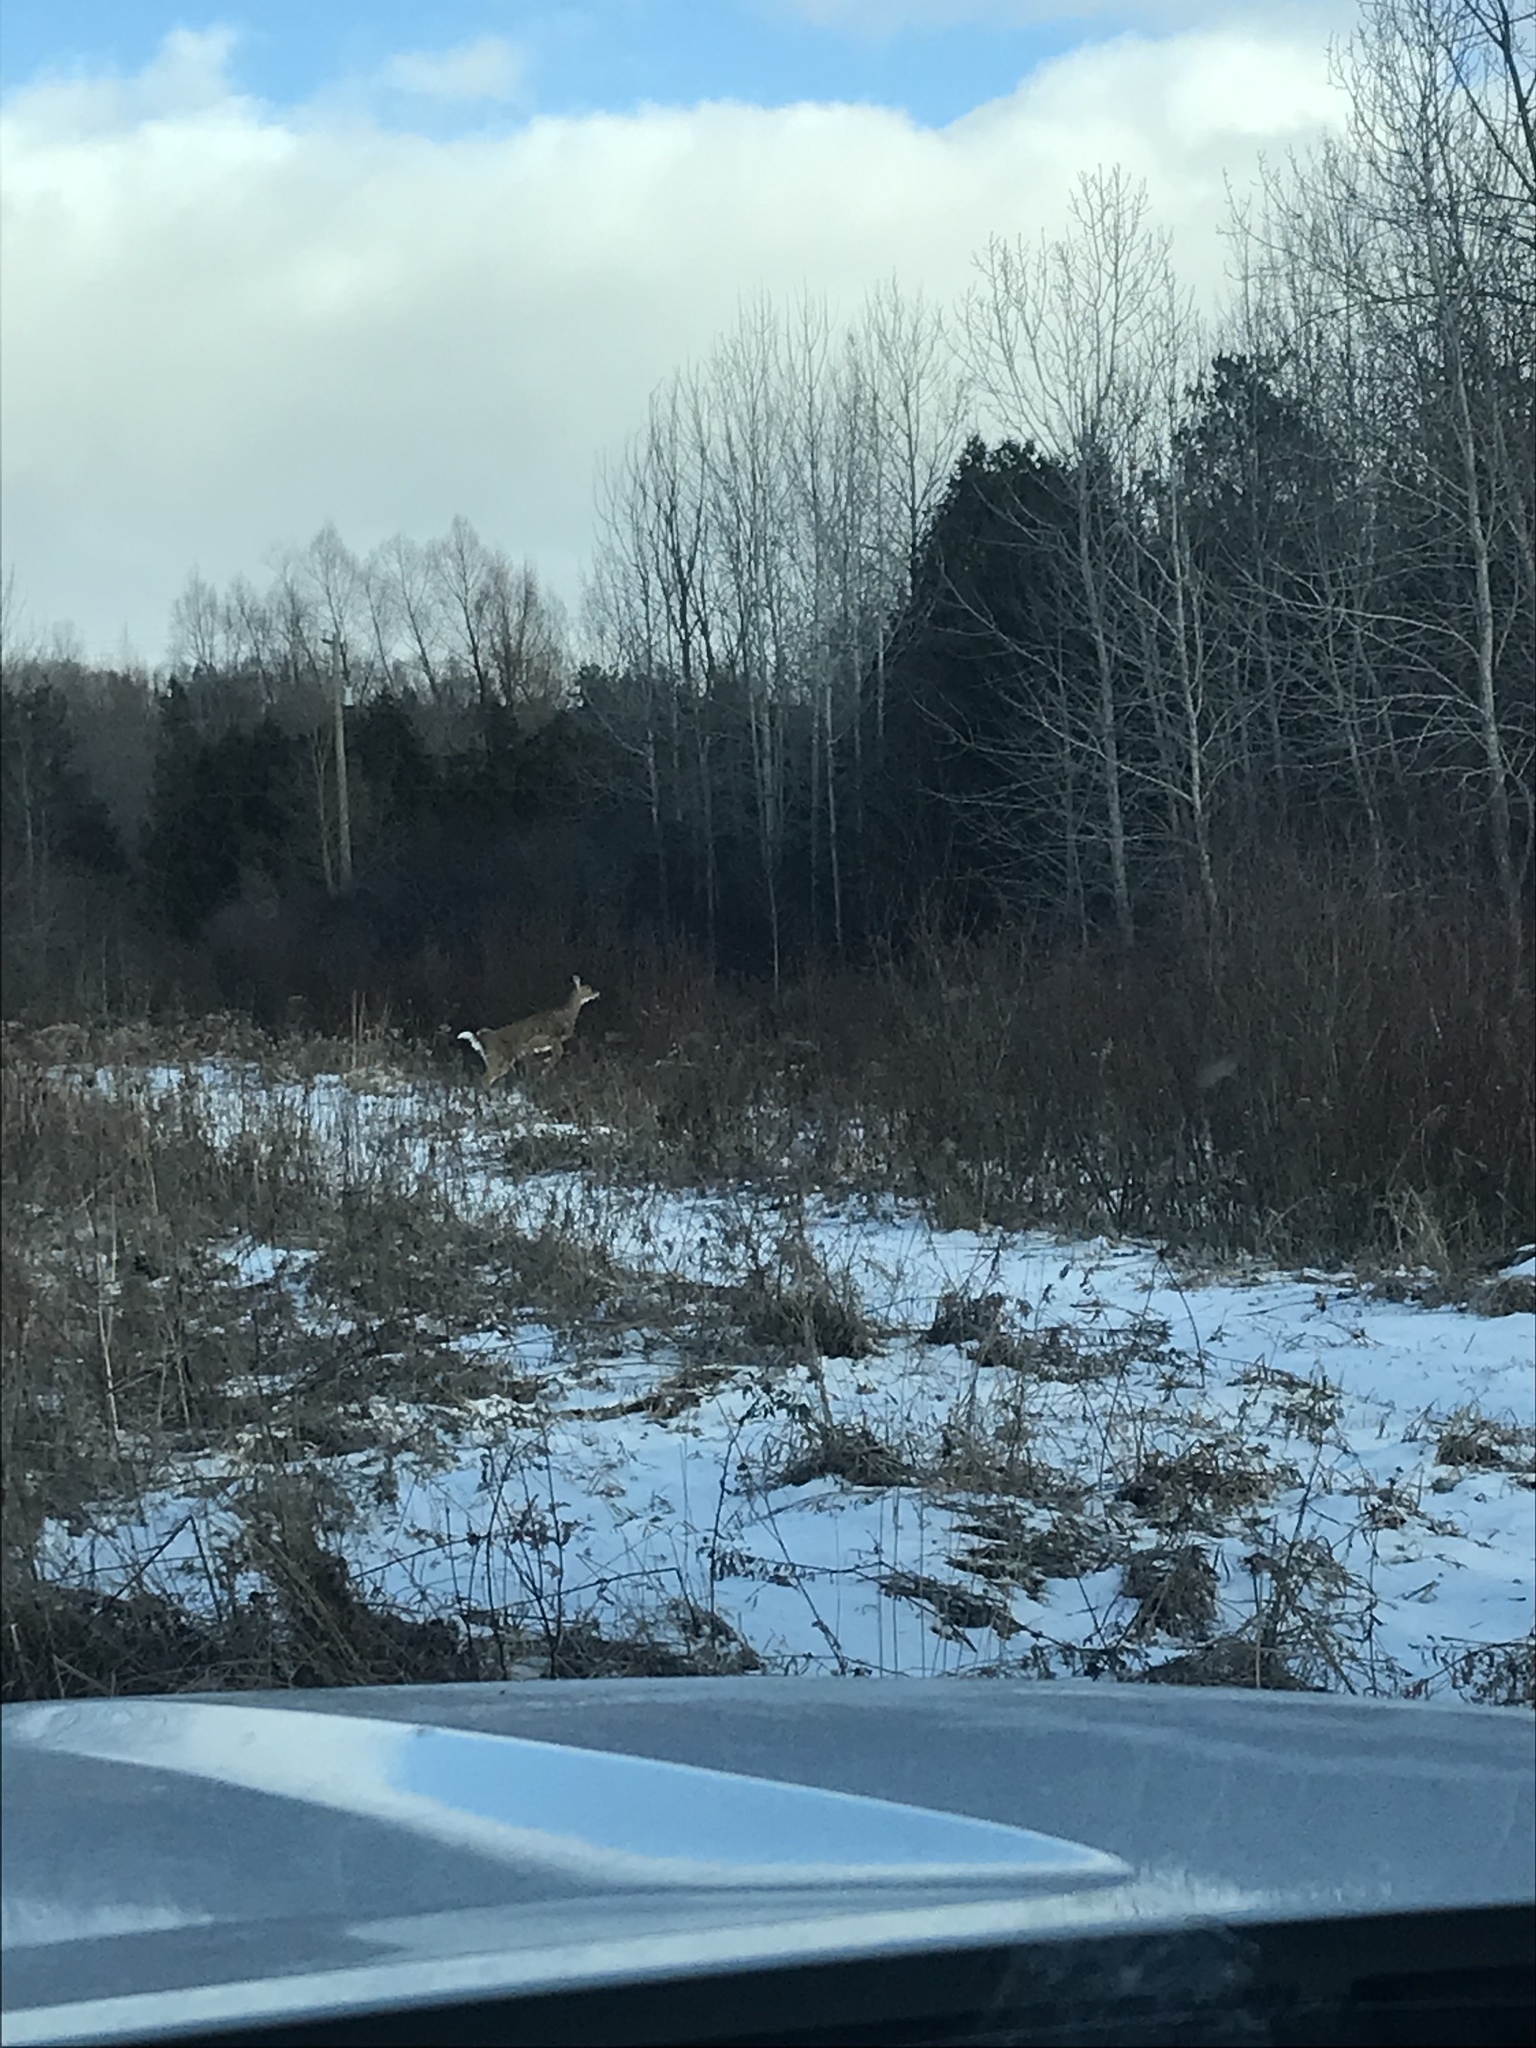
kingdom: Animalia
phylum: Chordata
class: Mammalia
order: Artiodactyla
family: Cervidae
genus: Odocoileus
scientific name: Odocoileus virginianus
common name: White-tailed deer
